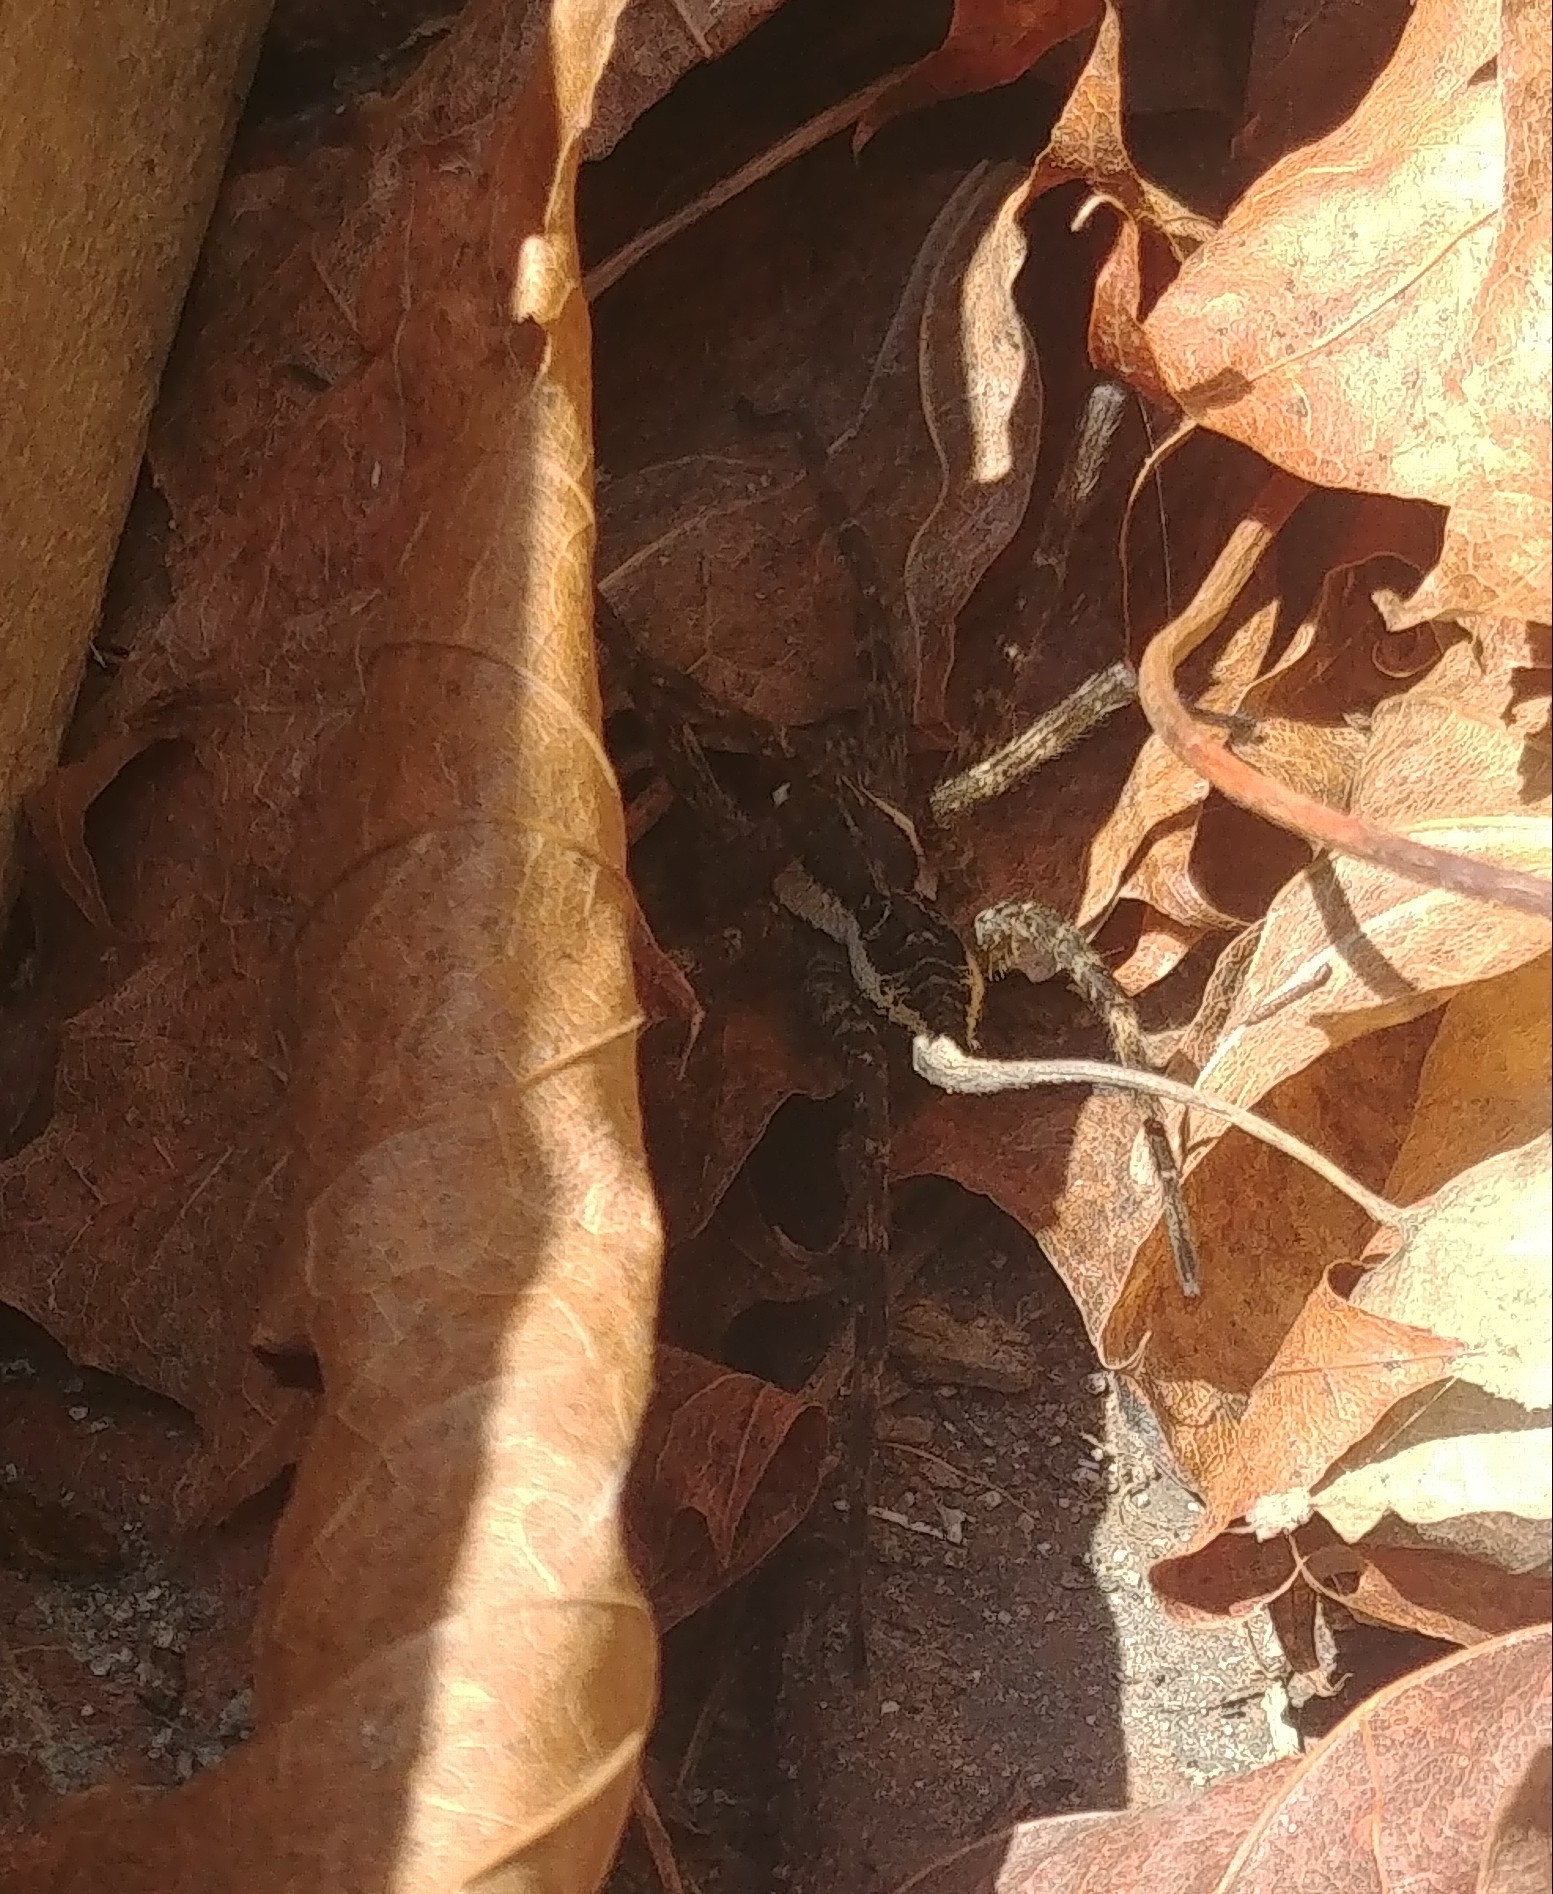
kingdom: Animalia
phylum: Arthropoda
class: Arachnida
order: Araneae
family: Pisauridae
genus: Dolomedes
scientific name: Dolomedes scriptus
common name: Striped fishing spider
